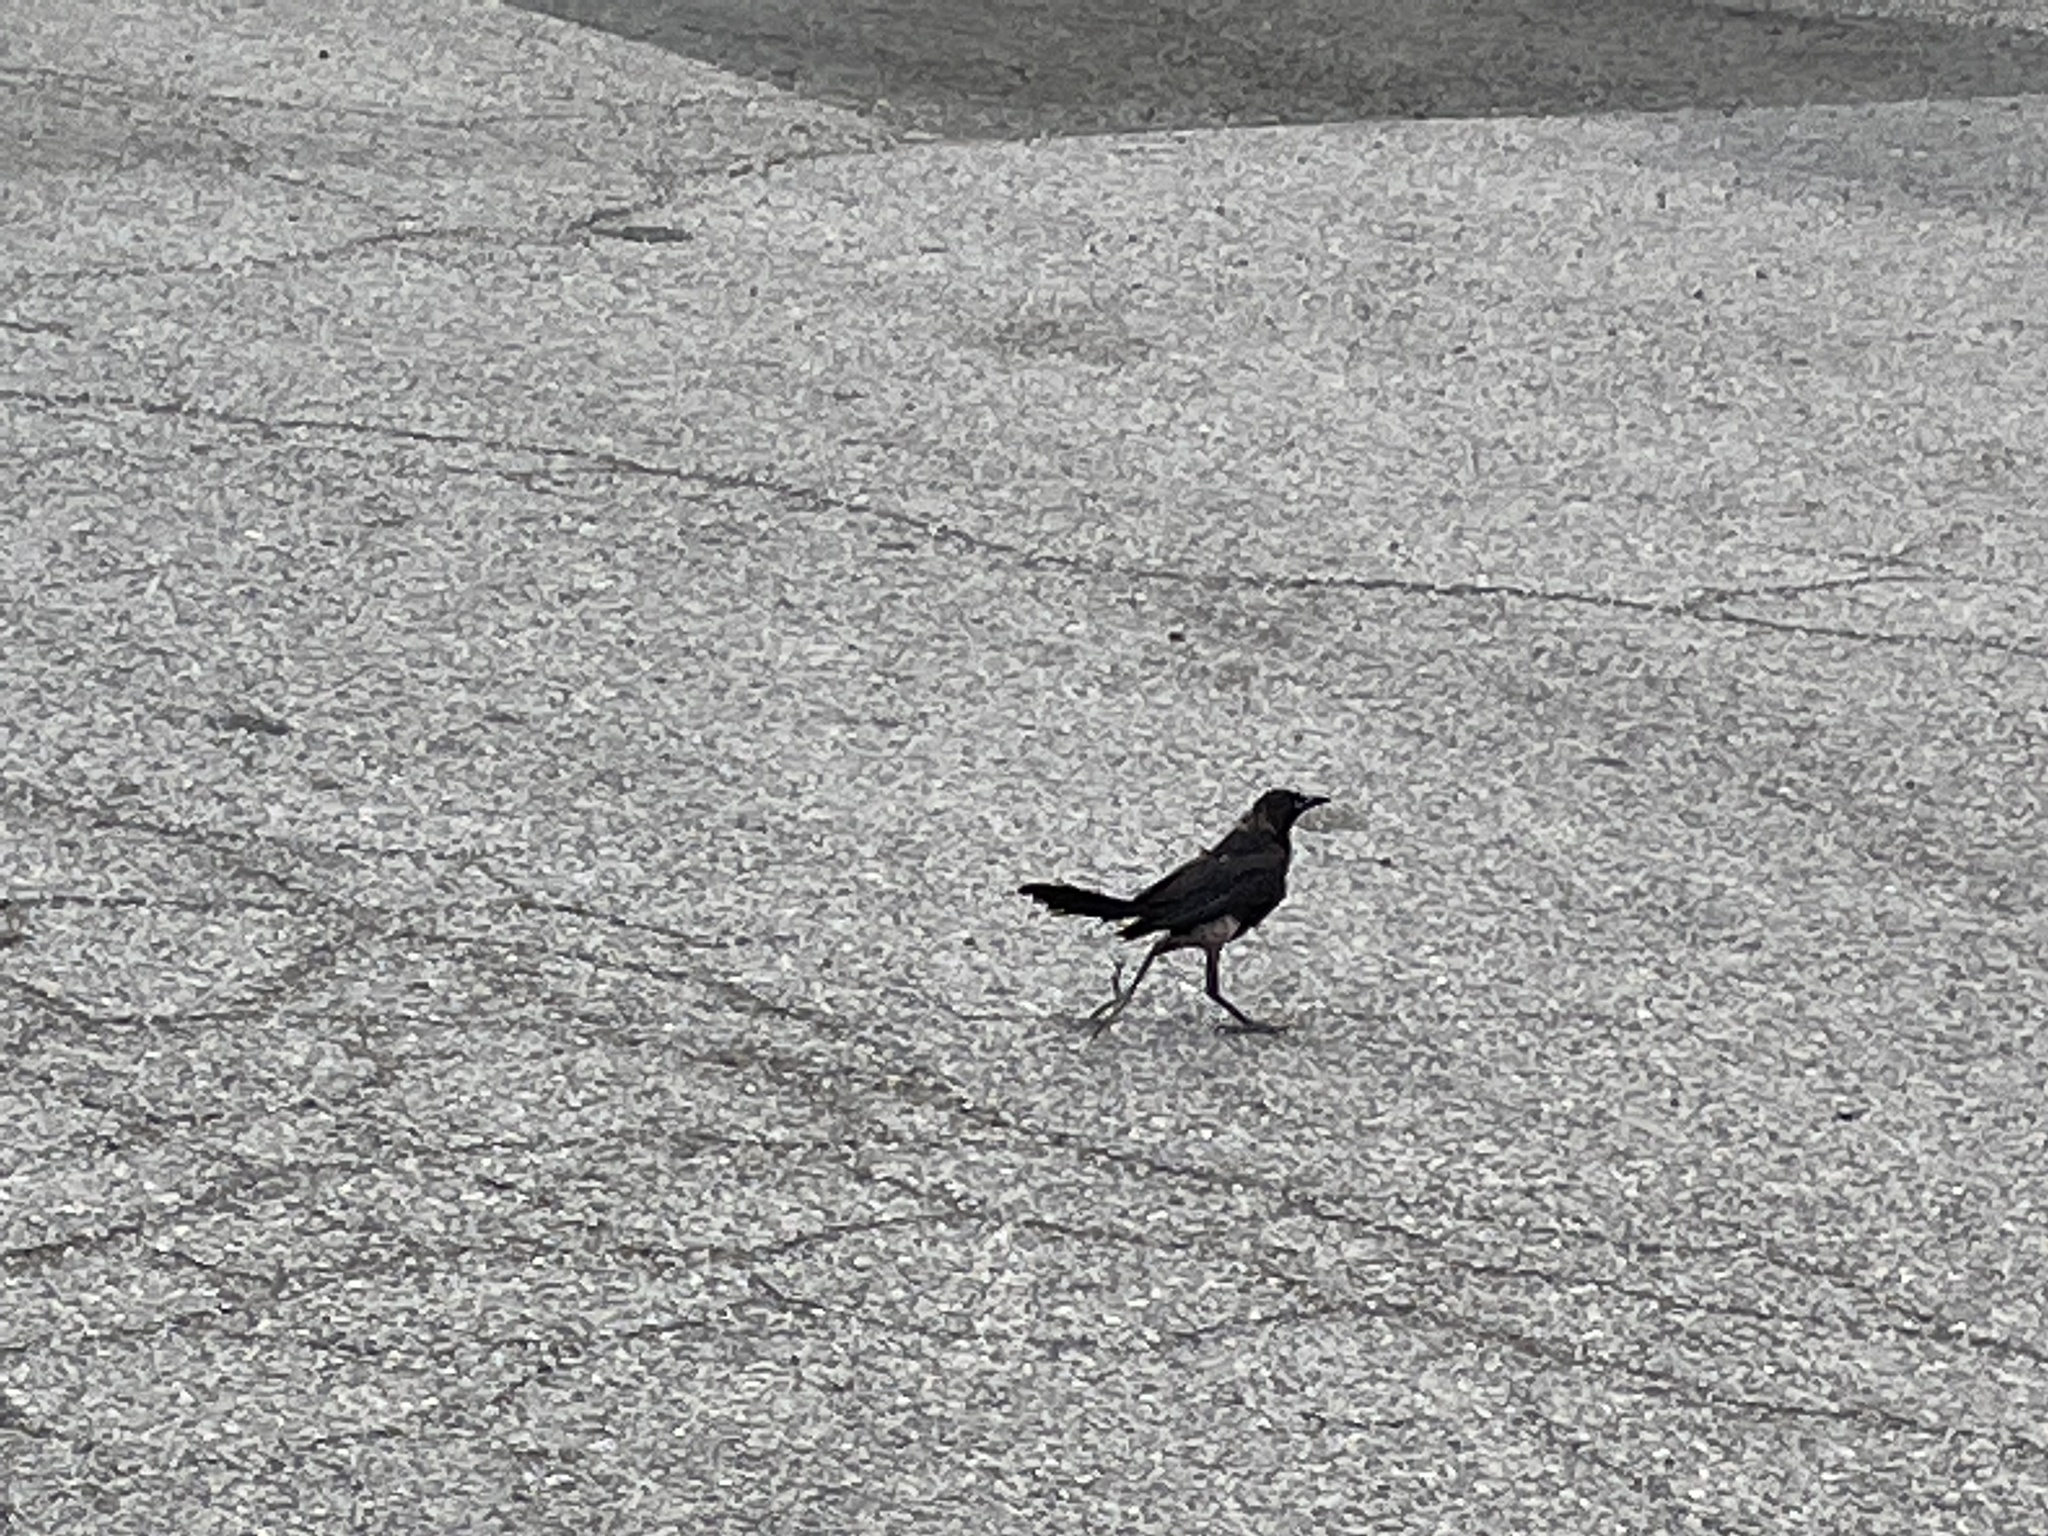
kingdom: Animalia
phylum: Chordata
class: Aves
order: Passeriformes
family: Icteridae
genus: Quiscalus
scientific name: Quiscalus mexicanus
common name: Great-tailed grackle
